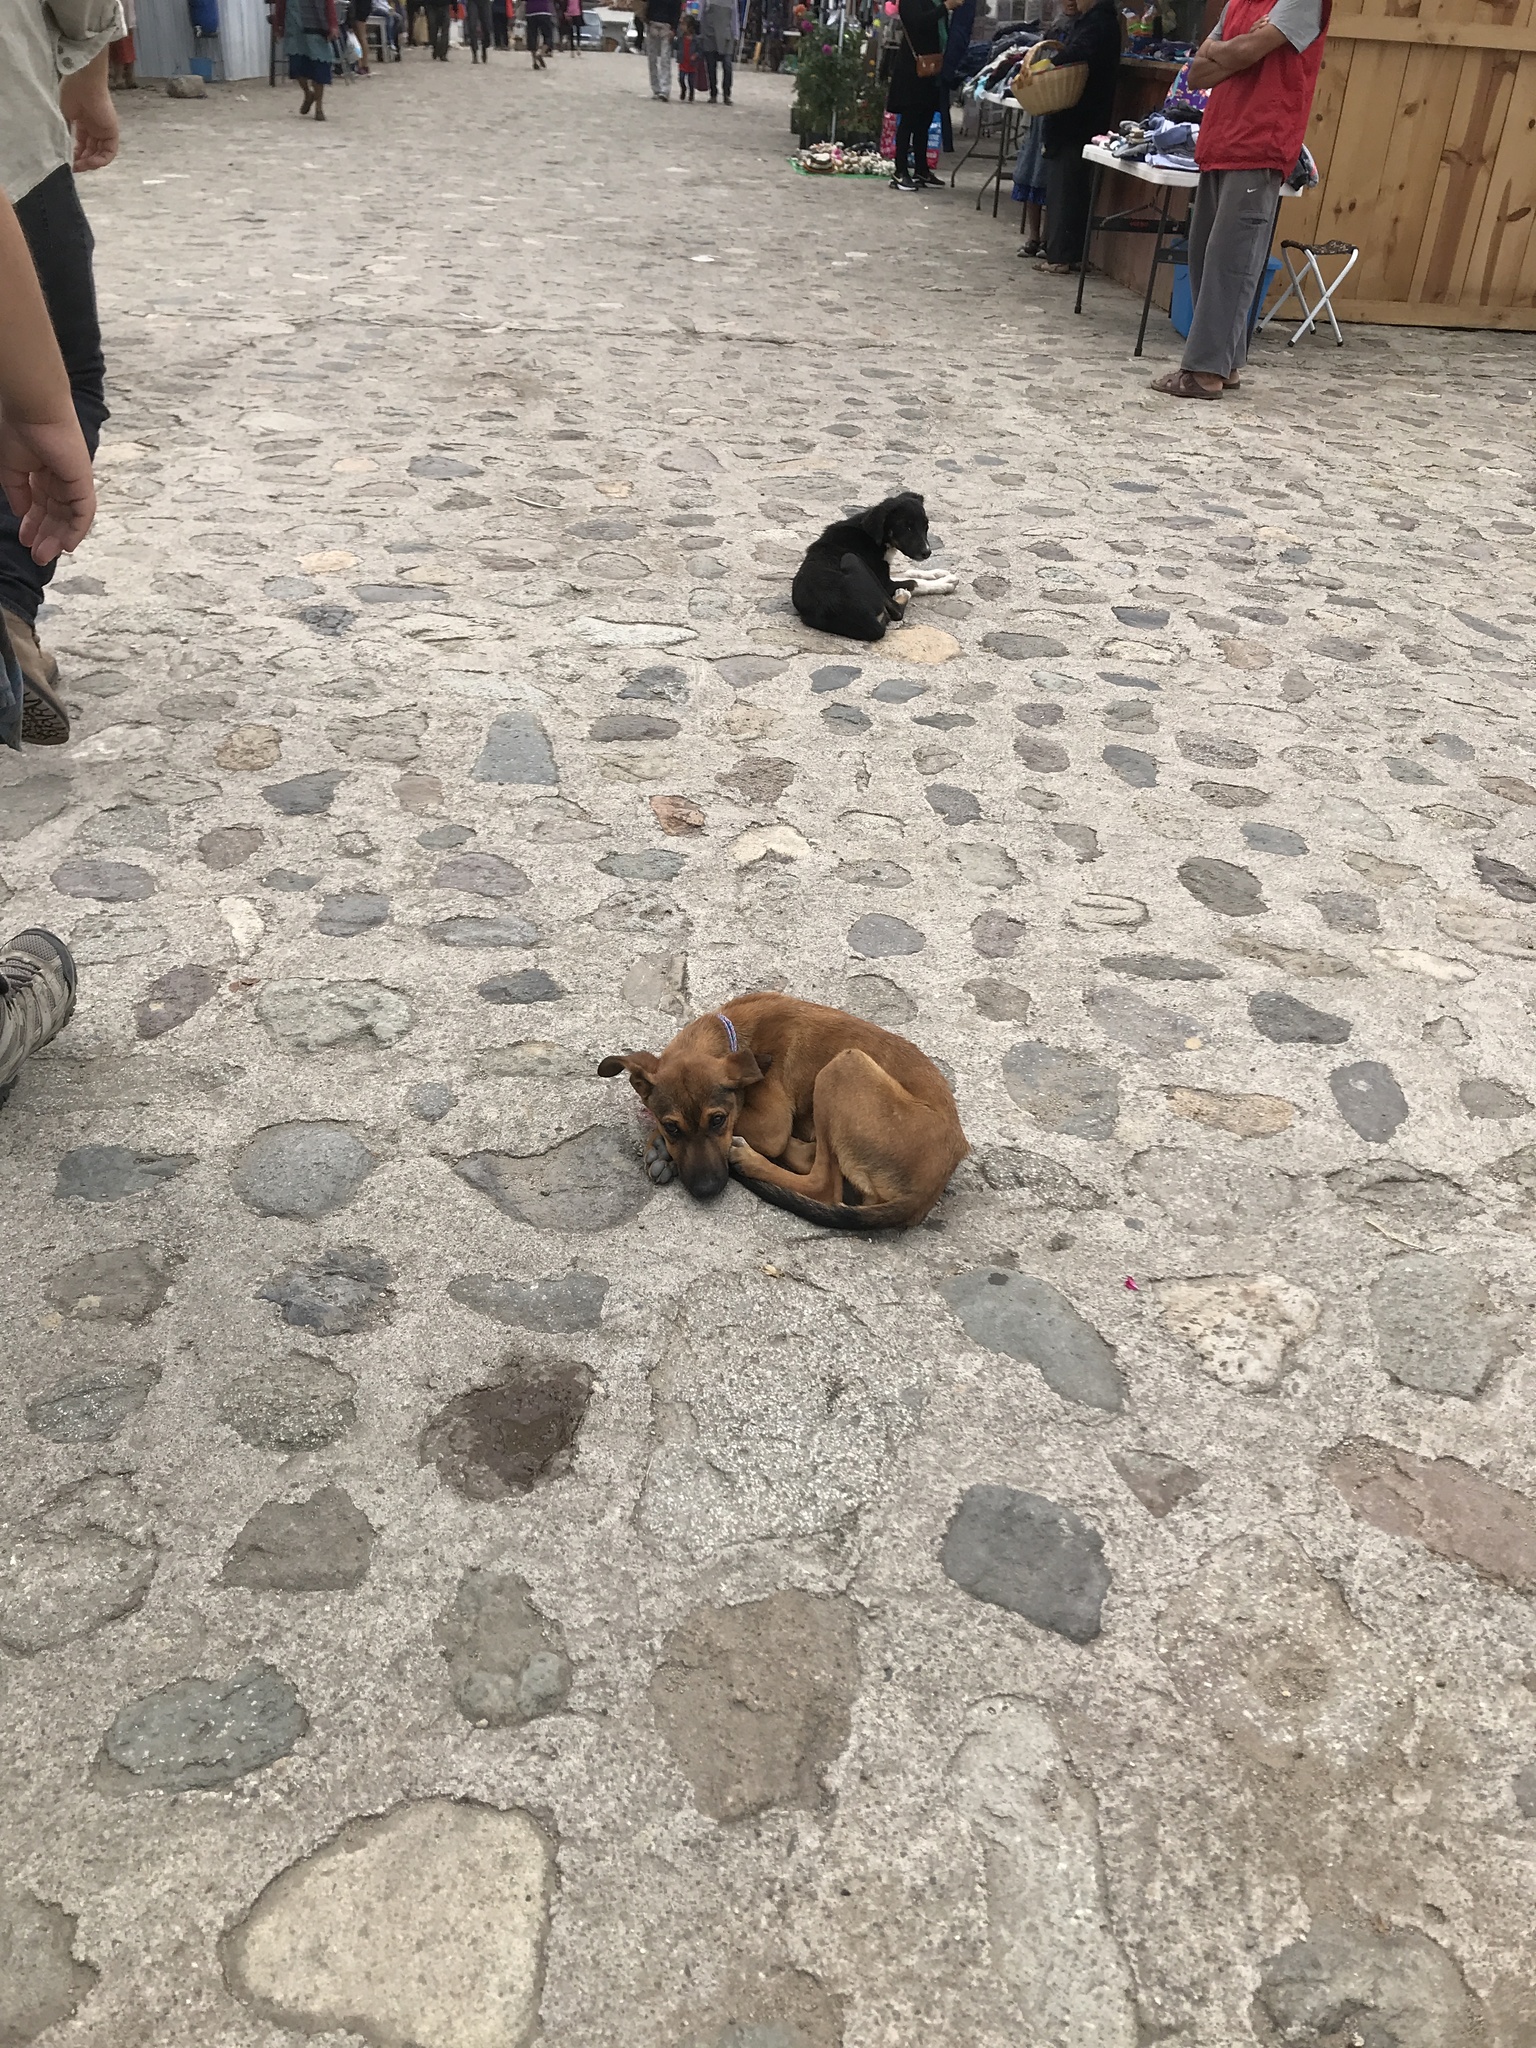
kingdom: Animalia
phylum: Chordata
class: Mammalia
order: Carnivora
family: Canidae
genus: Canis
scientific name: Canis lupus
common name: Gray wolf
